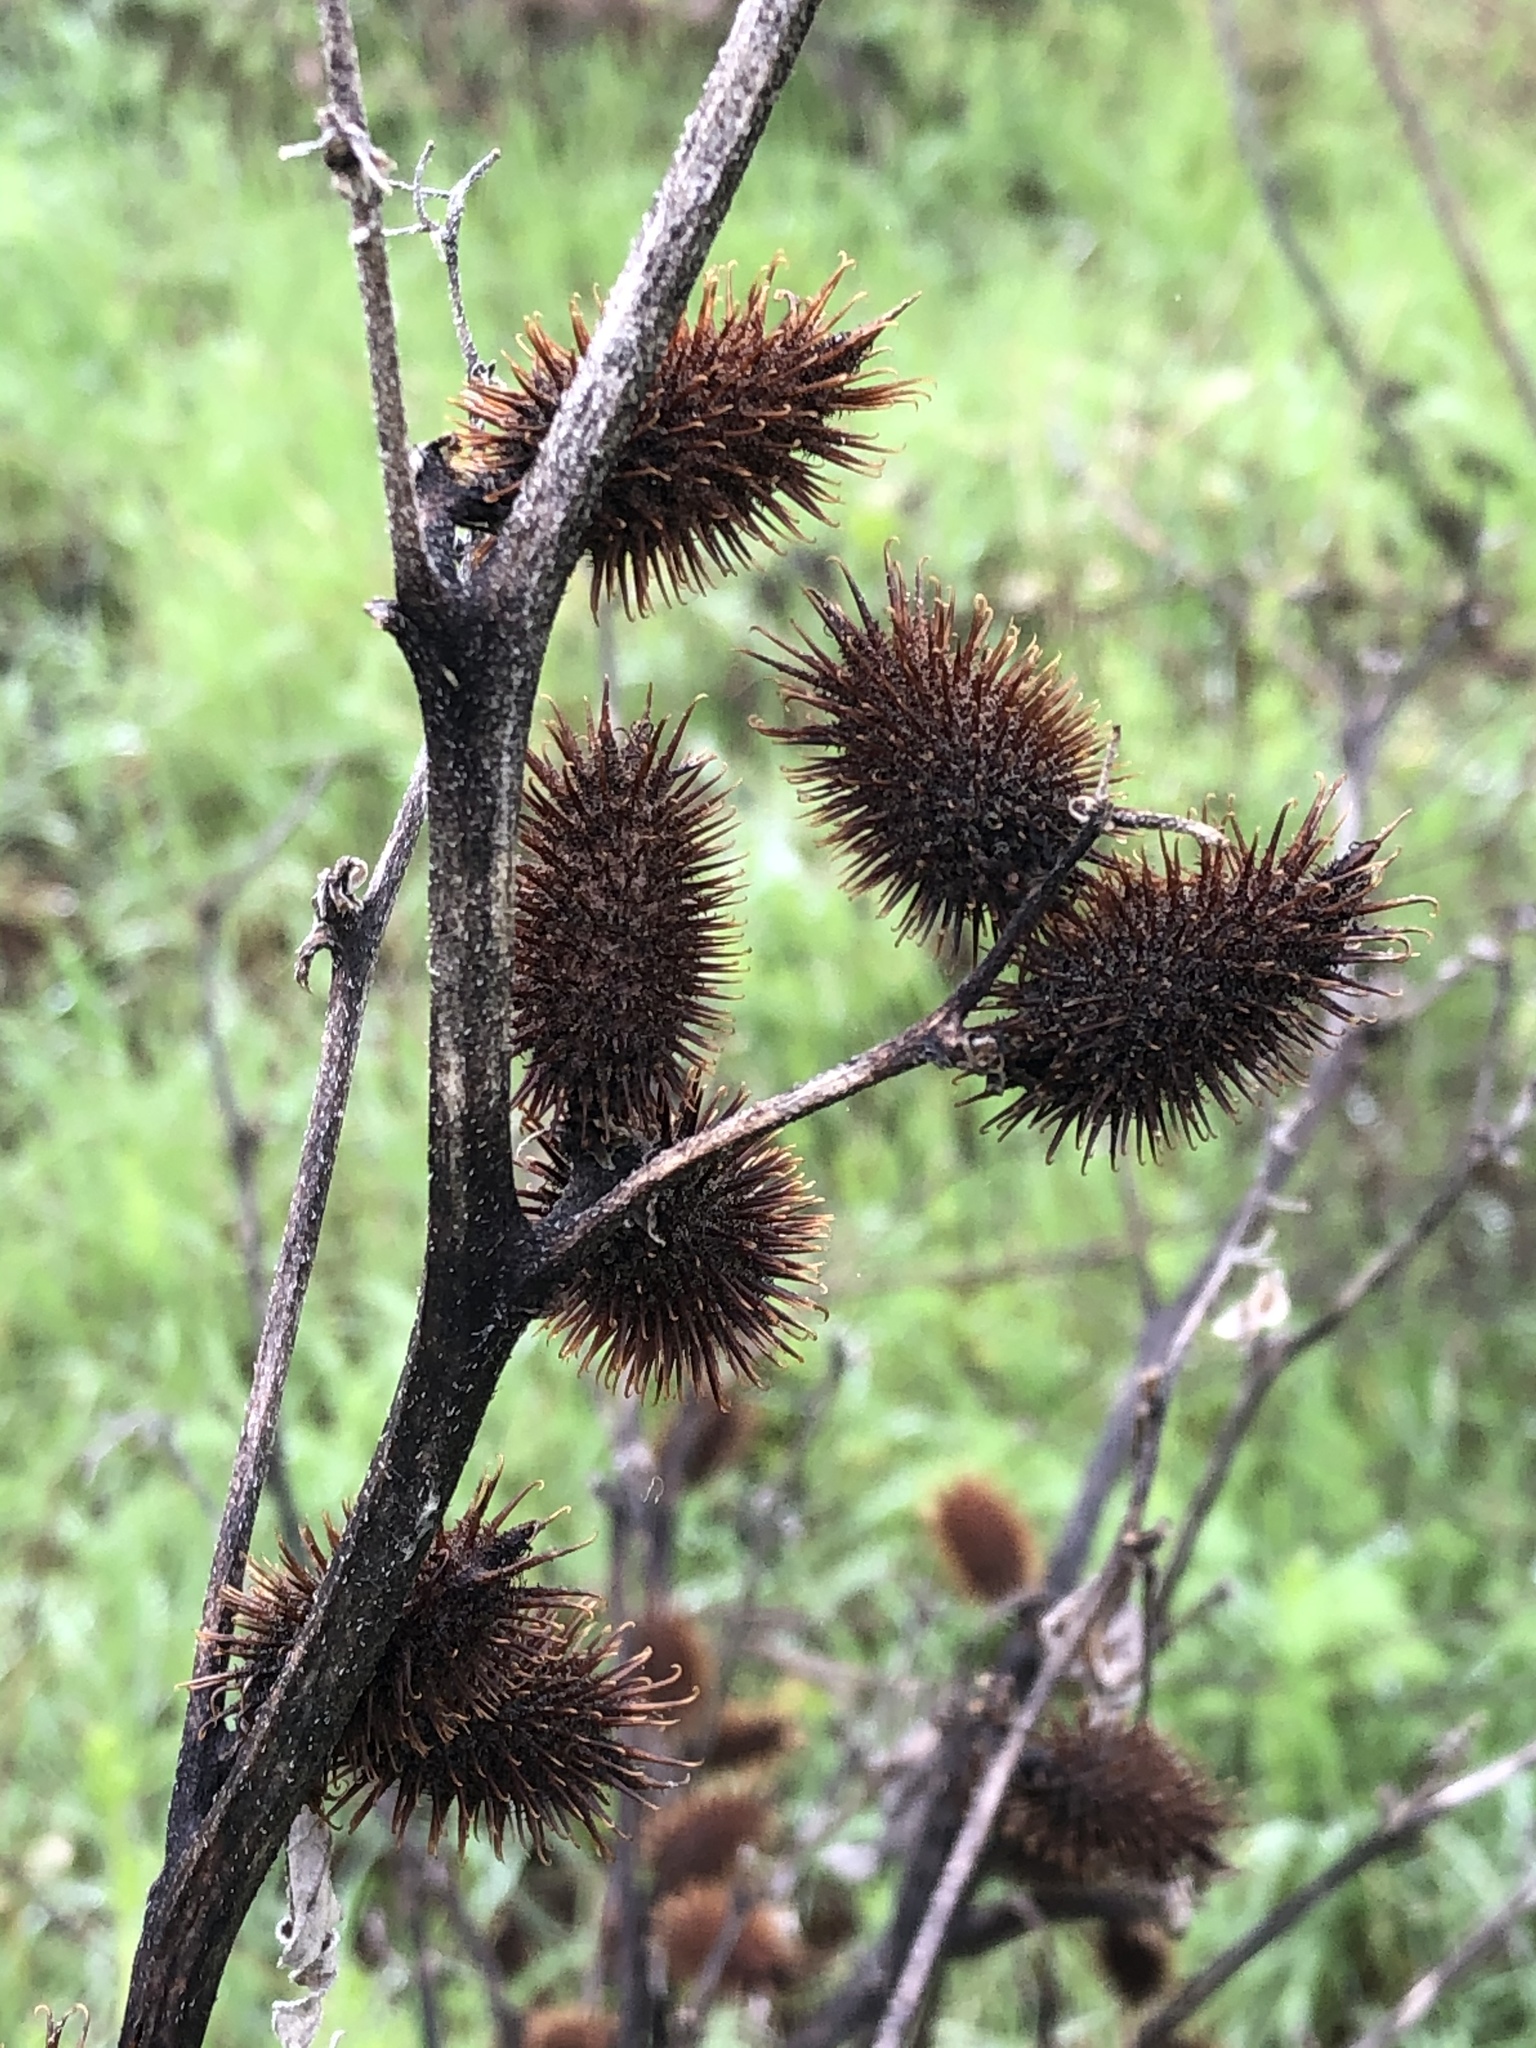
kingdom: Plantae
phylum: Tracheophyta
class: Magnoliopsida
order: Asterales
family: Asteraceae
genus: Xanthium
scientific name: Xanthium strumarium
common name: Rough cocklebur
